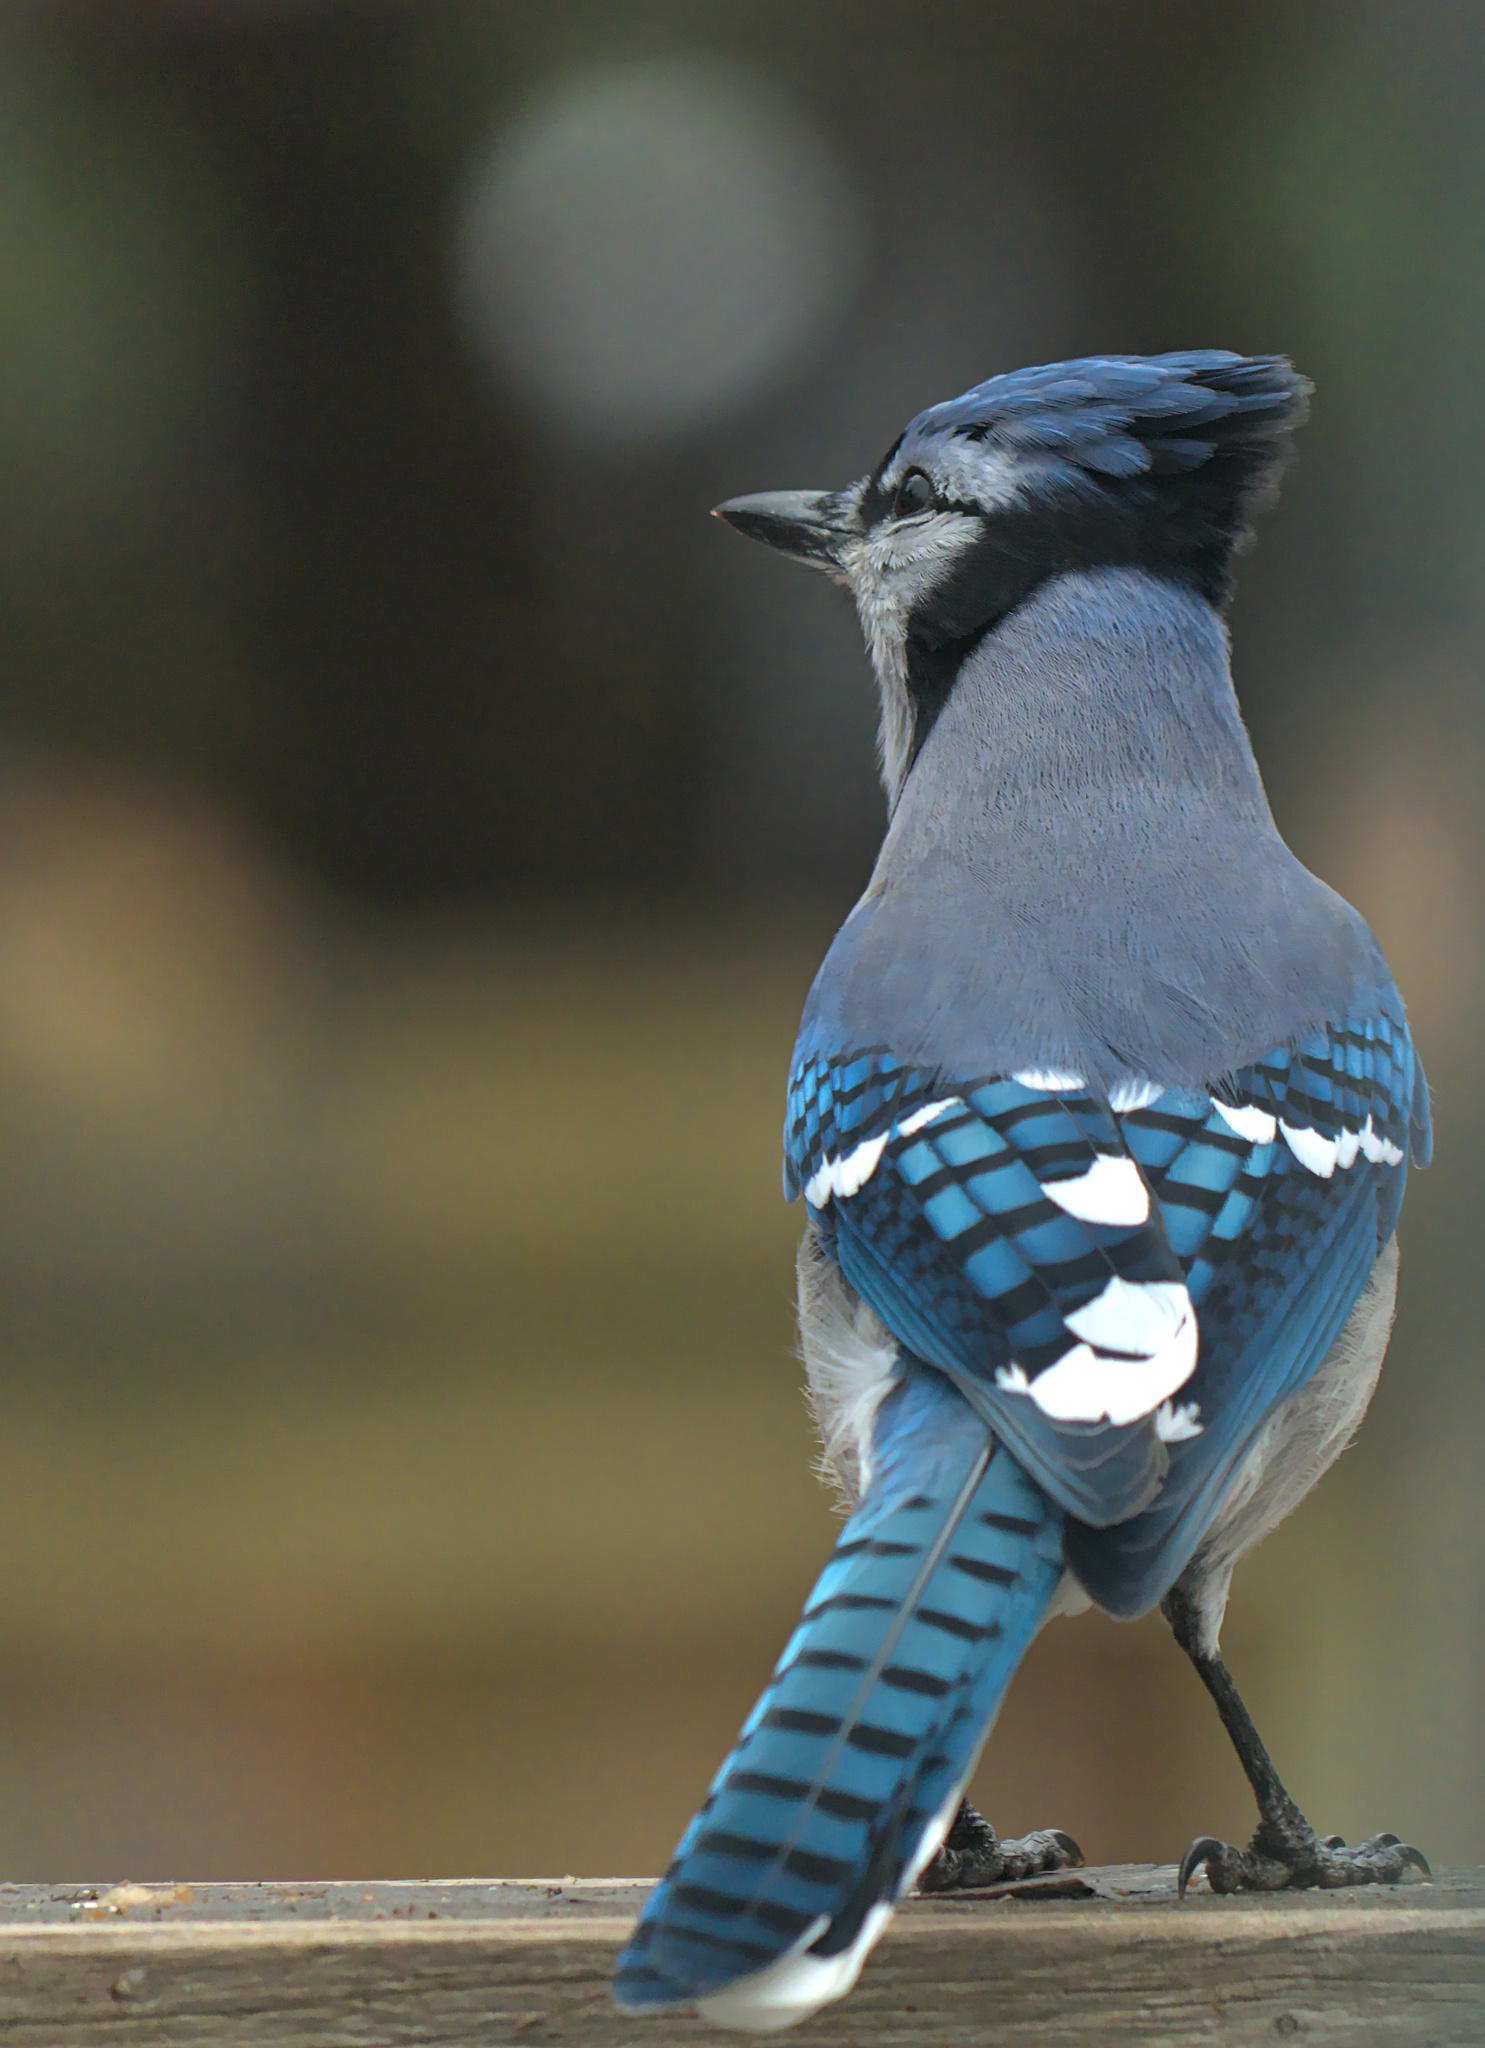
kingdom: Animalia
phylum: Chordata
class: Aves
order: Passeriformes
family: Corvidae
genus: Cyanocitta
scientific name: Cyanocitta cristata
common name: Blue jay
